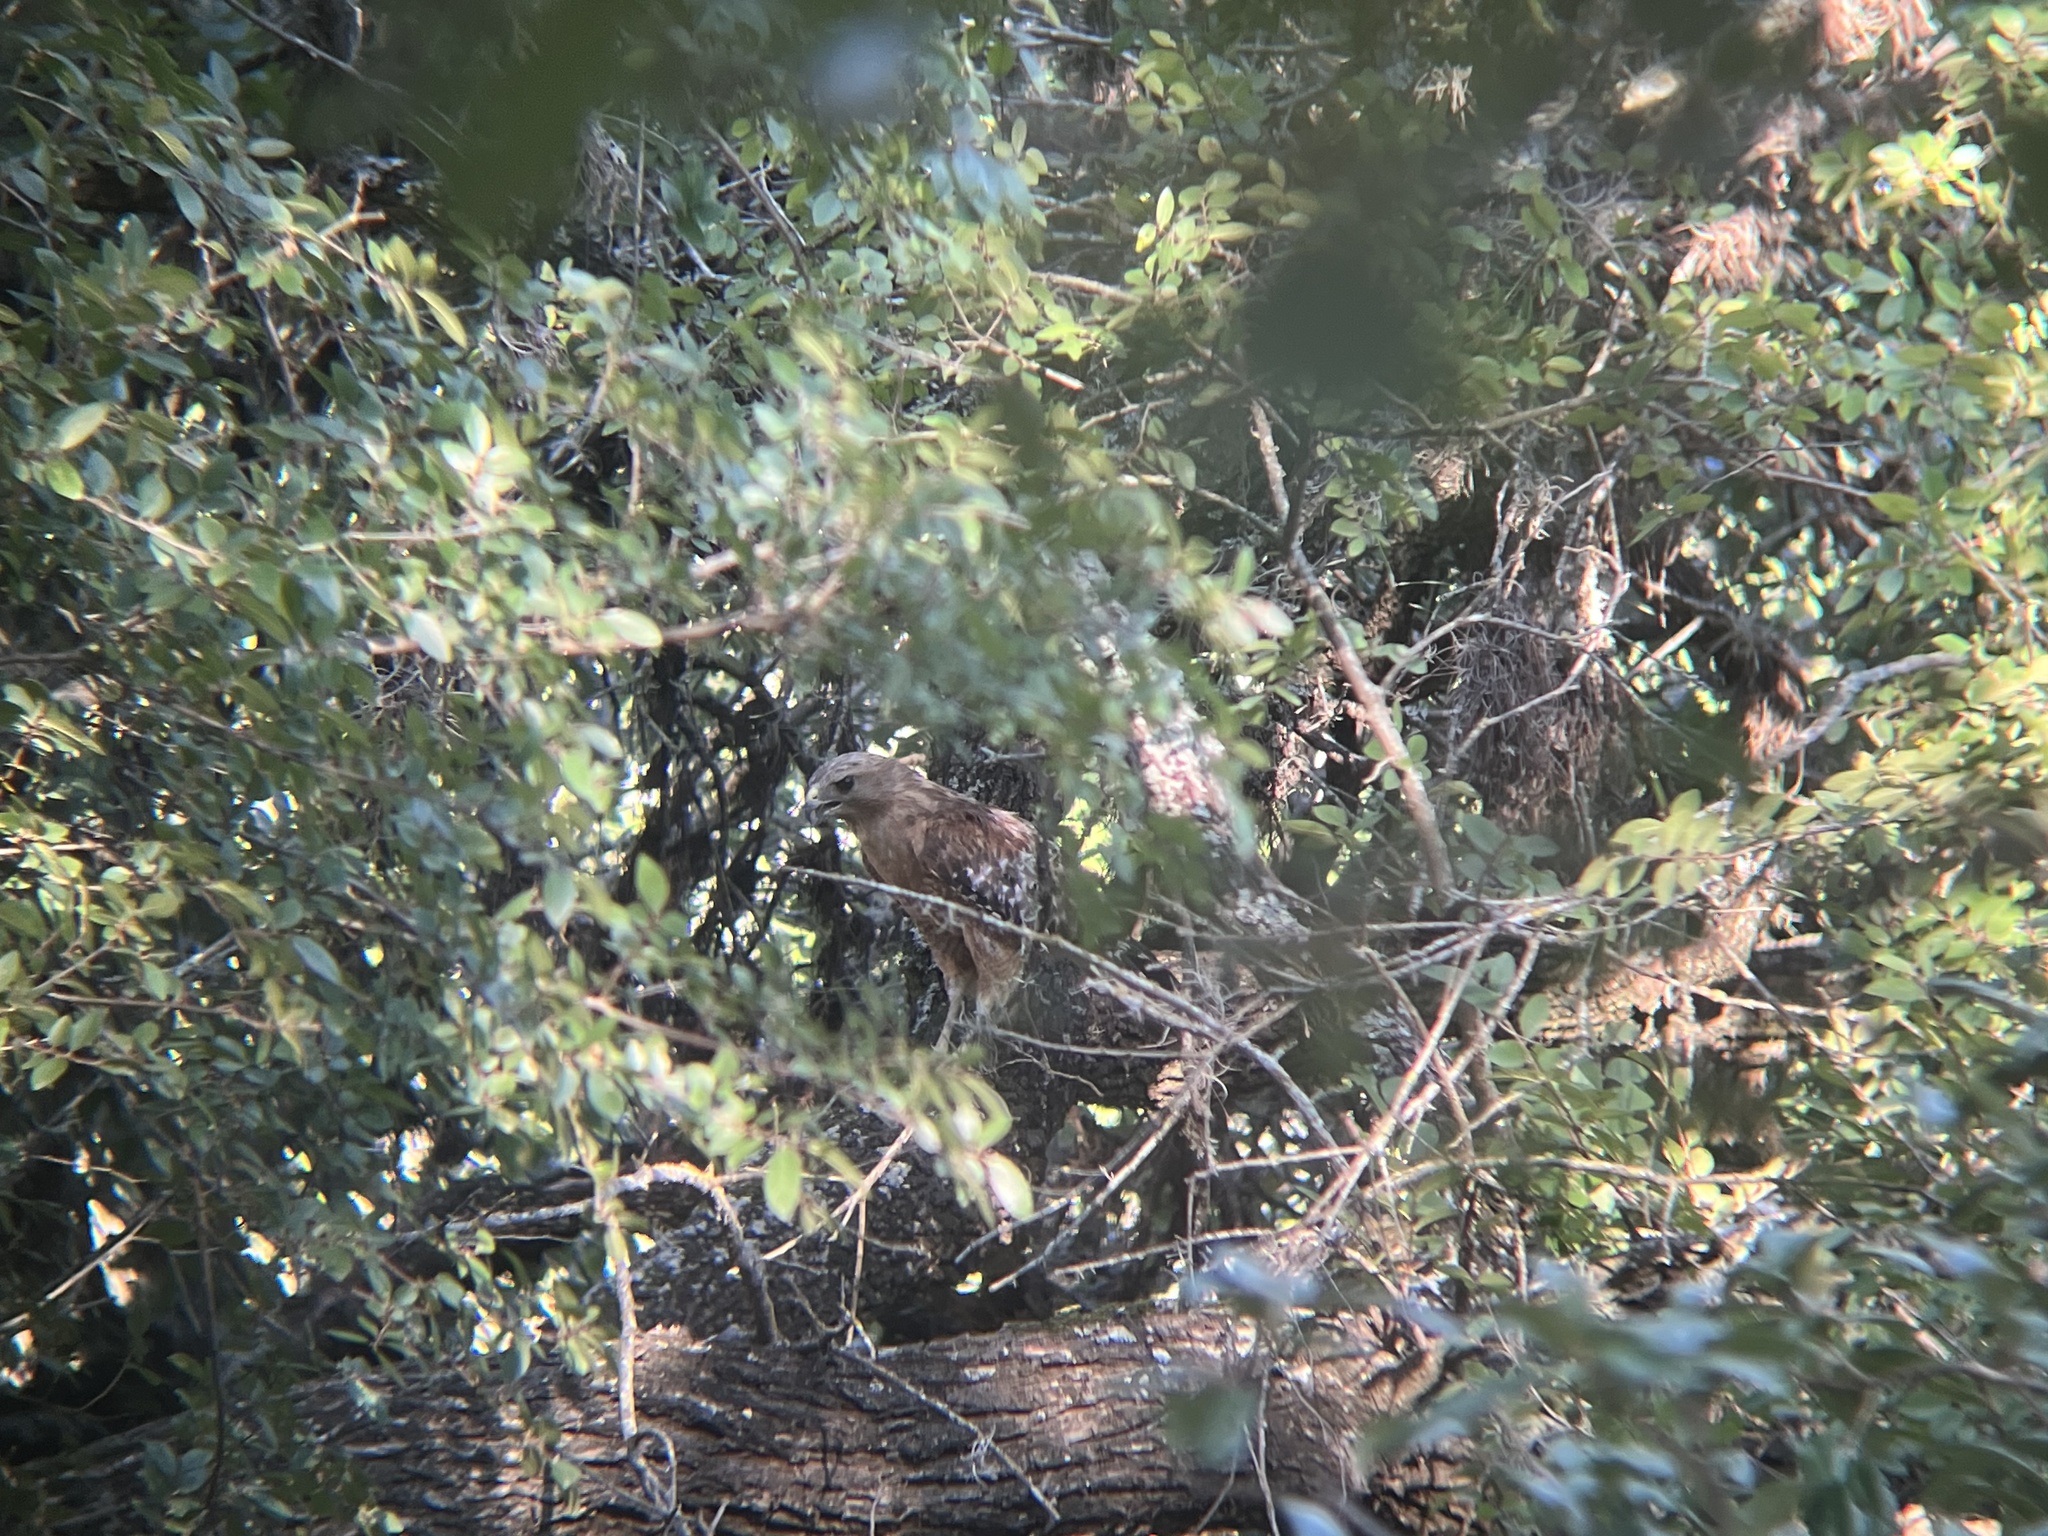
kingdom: Animalia
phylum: Chordata
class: Aves
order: Accipitriformes
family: Accipitridae
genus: Buteo
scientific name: Buteo lineatus
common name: Red-shouldered hawk
